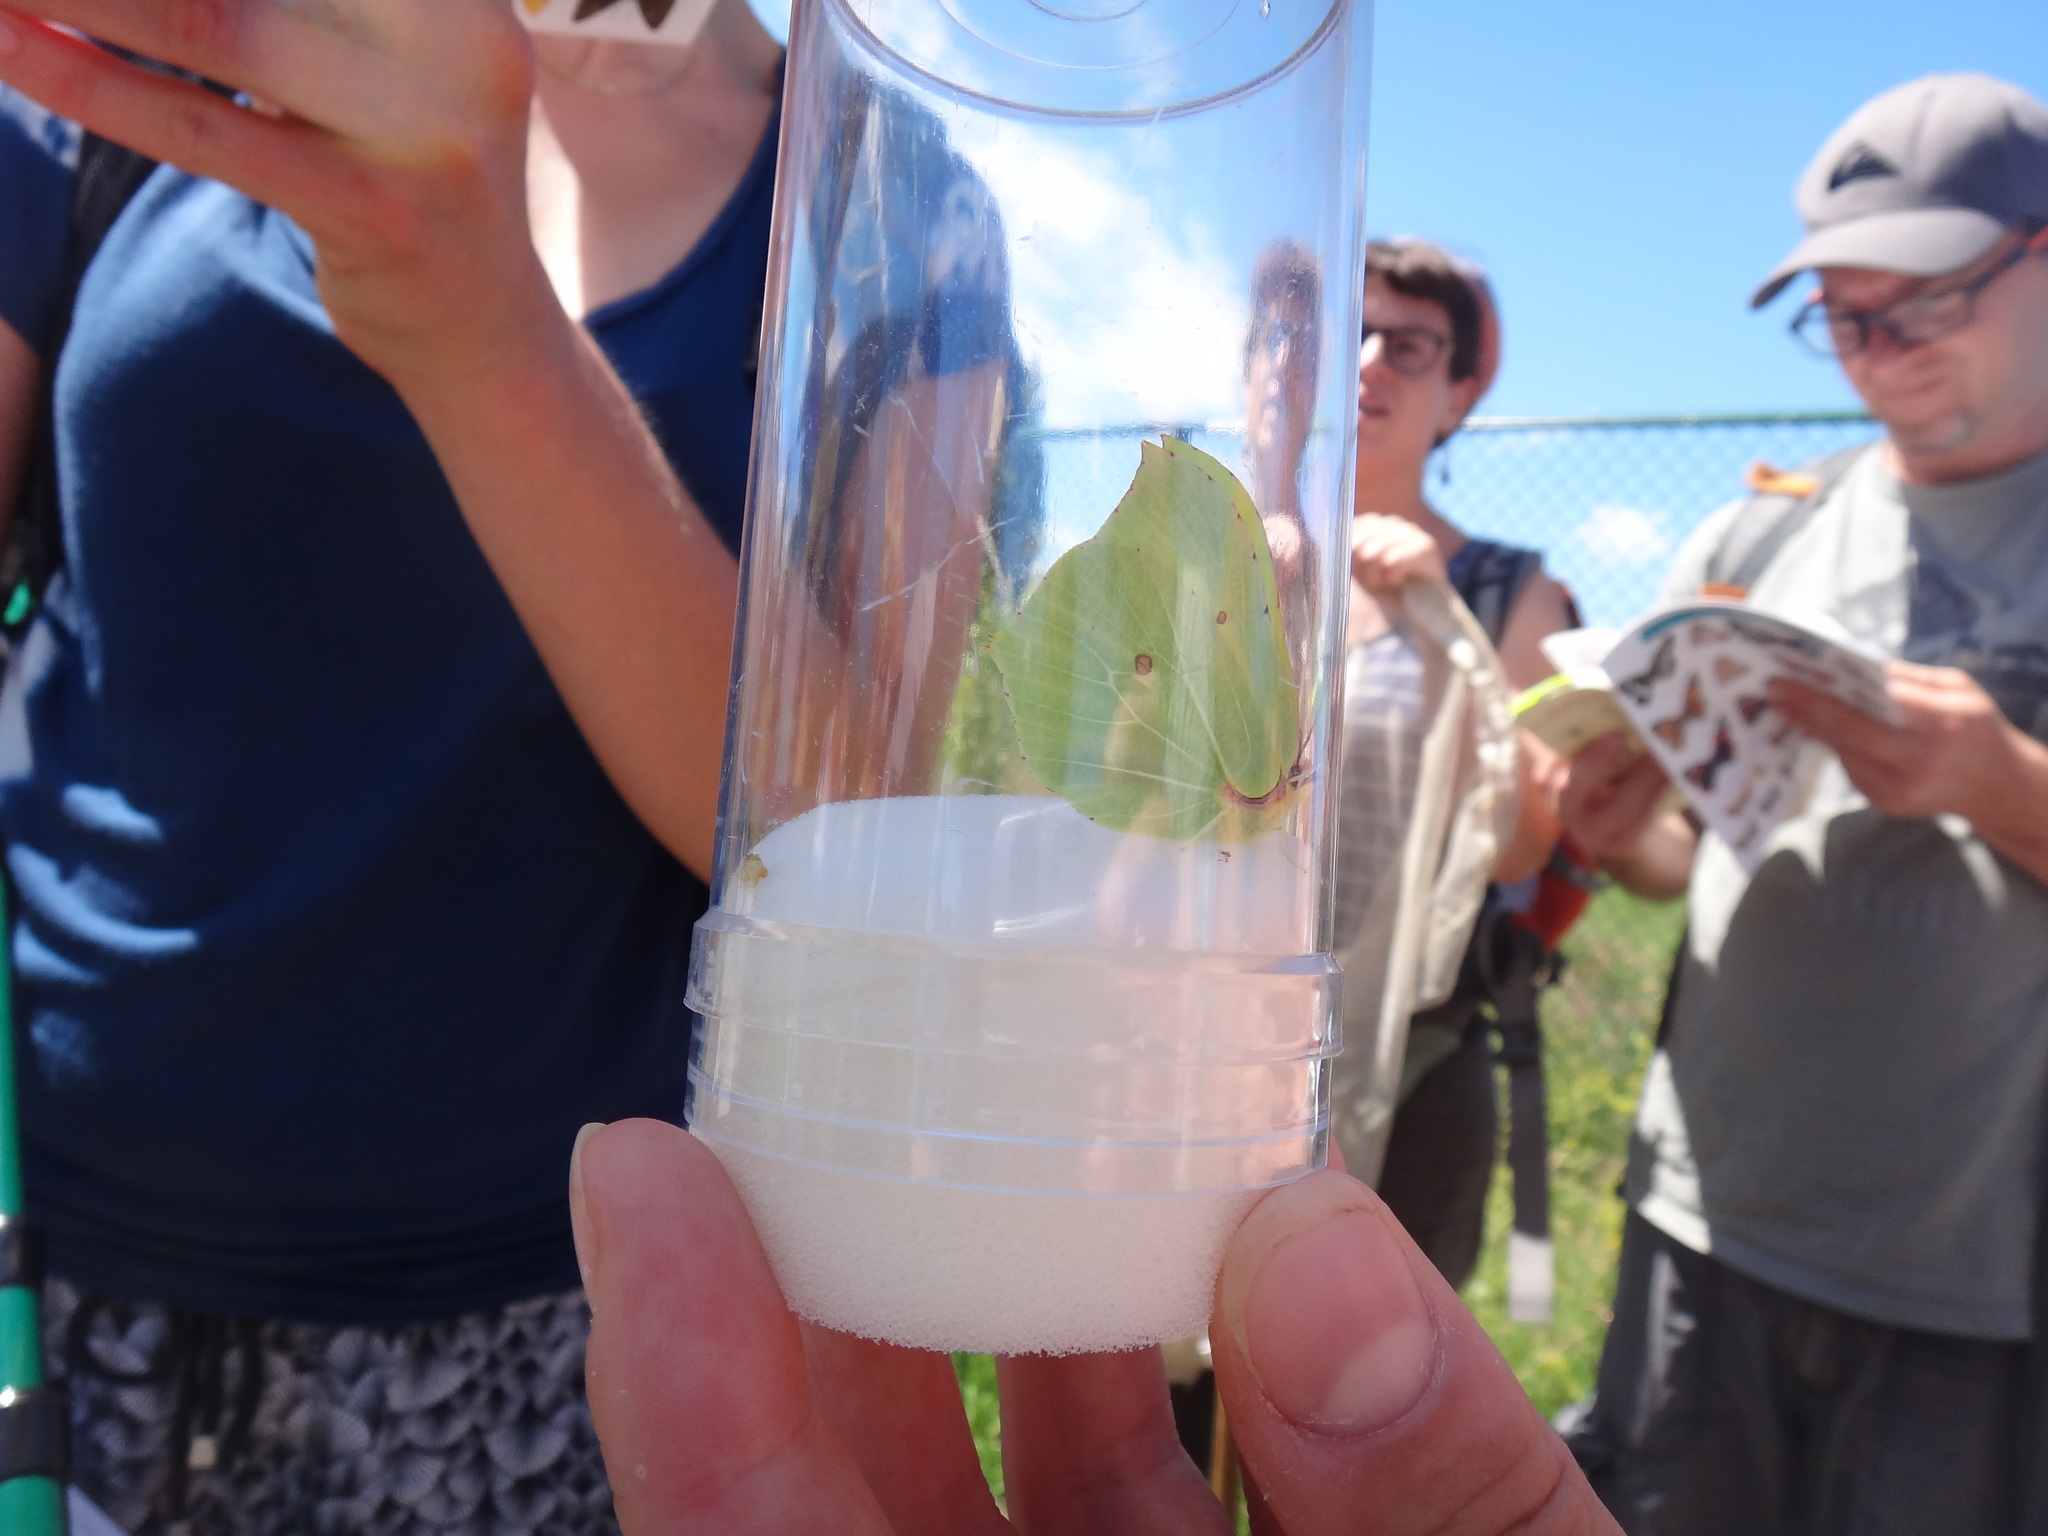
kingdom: Animalia
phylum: Arthropoda
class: Insecta
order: Lepidoptera
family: Pieridae
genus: Gonepteryx
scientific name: Gonepteryx rhamni
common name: Brimstone
